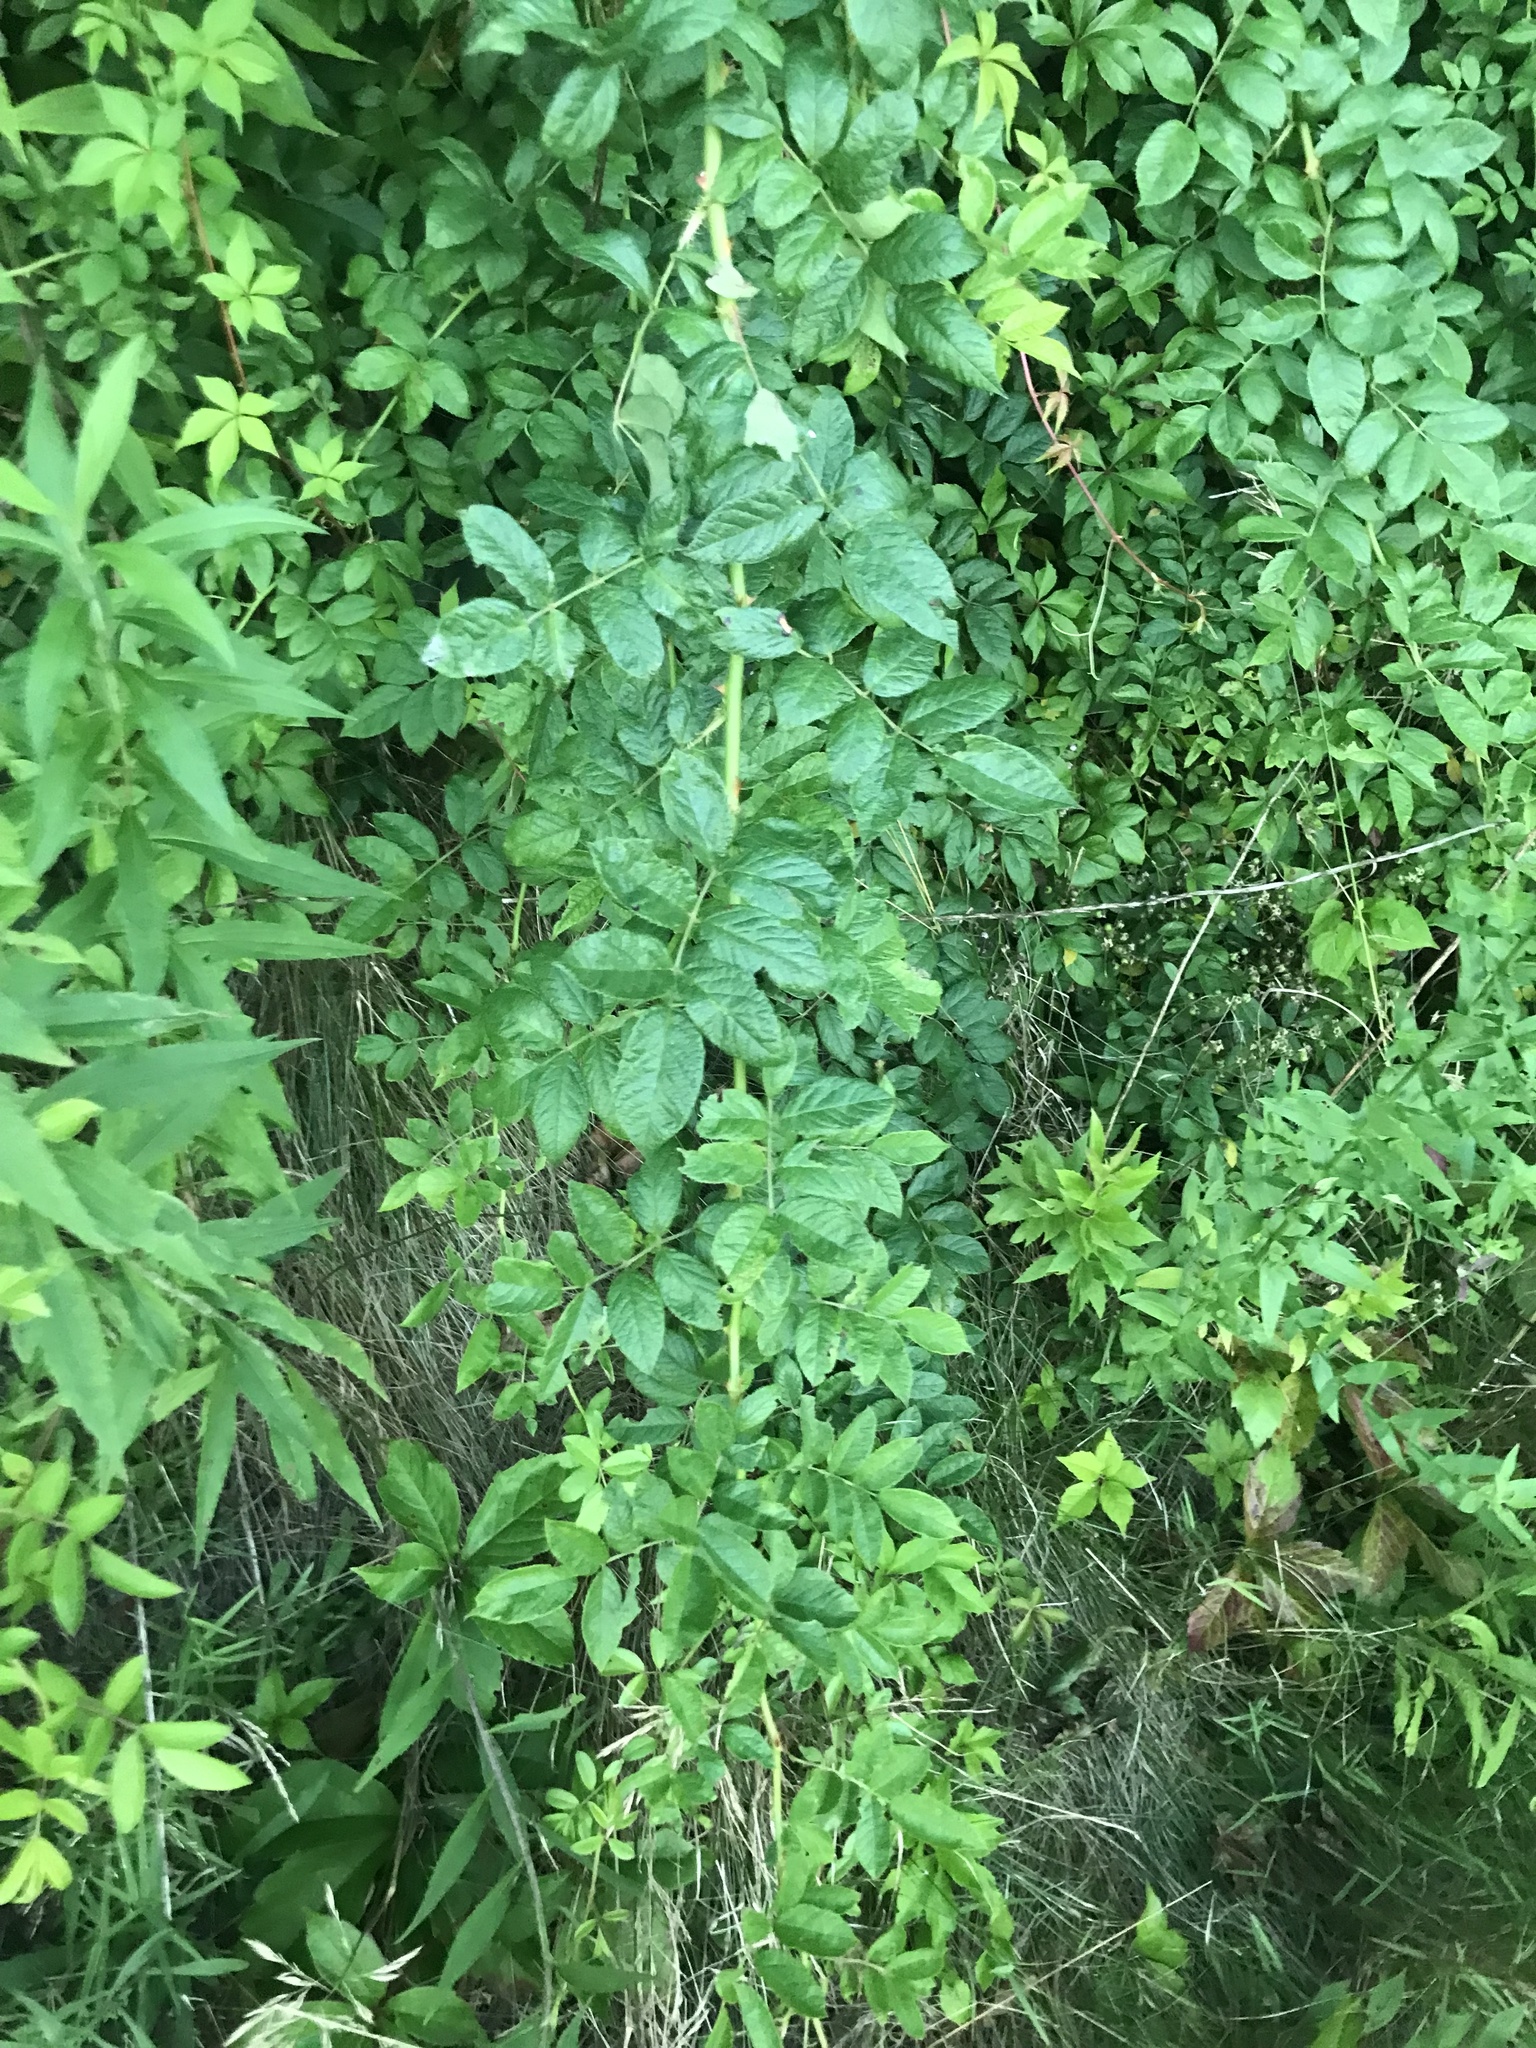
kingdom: Plantae
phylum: Tracheophyta
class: Magnoliopsida
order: Rosales
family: Rosaceae
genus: Rosa
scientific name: Rosa multiflora
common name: Multiflora rose
